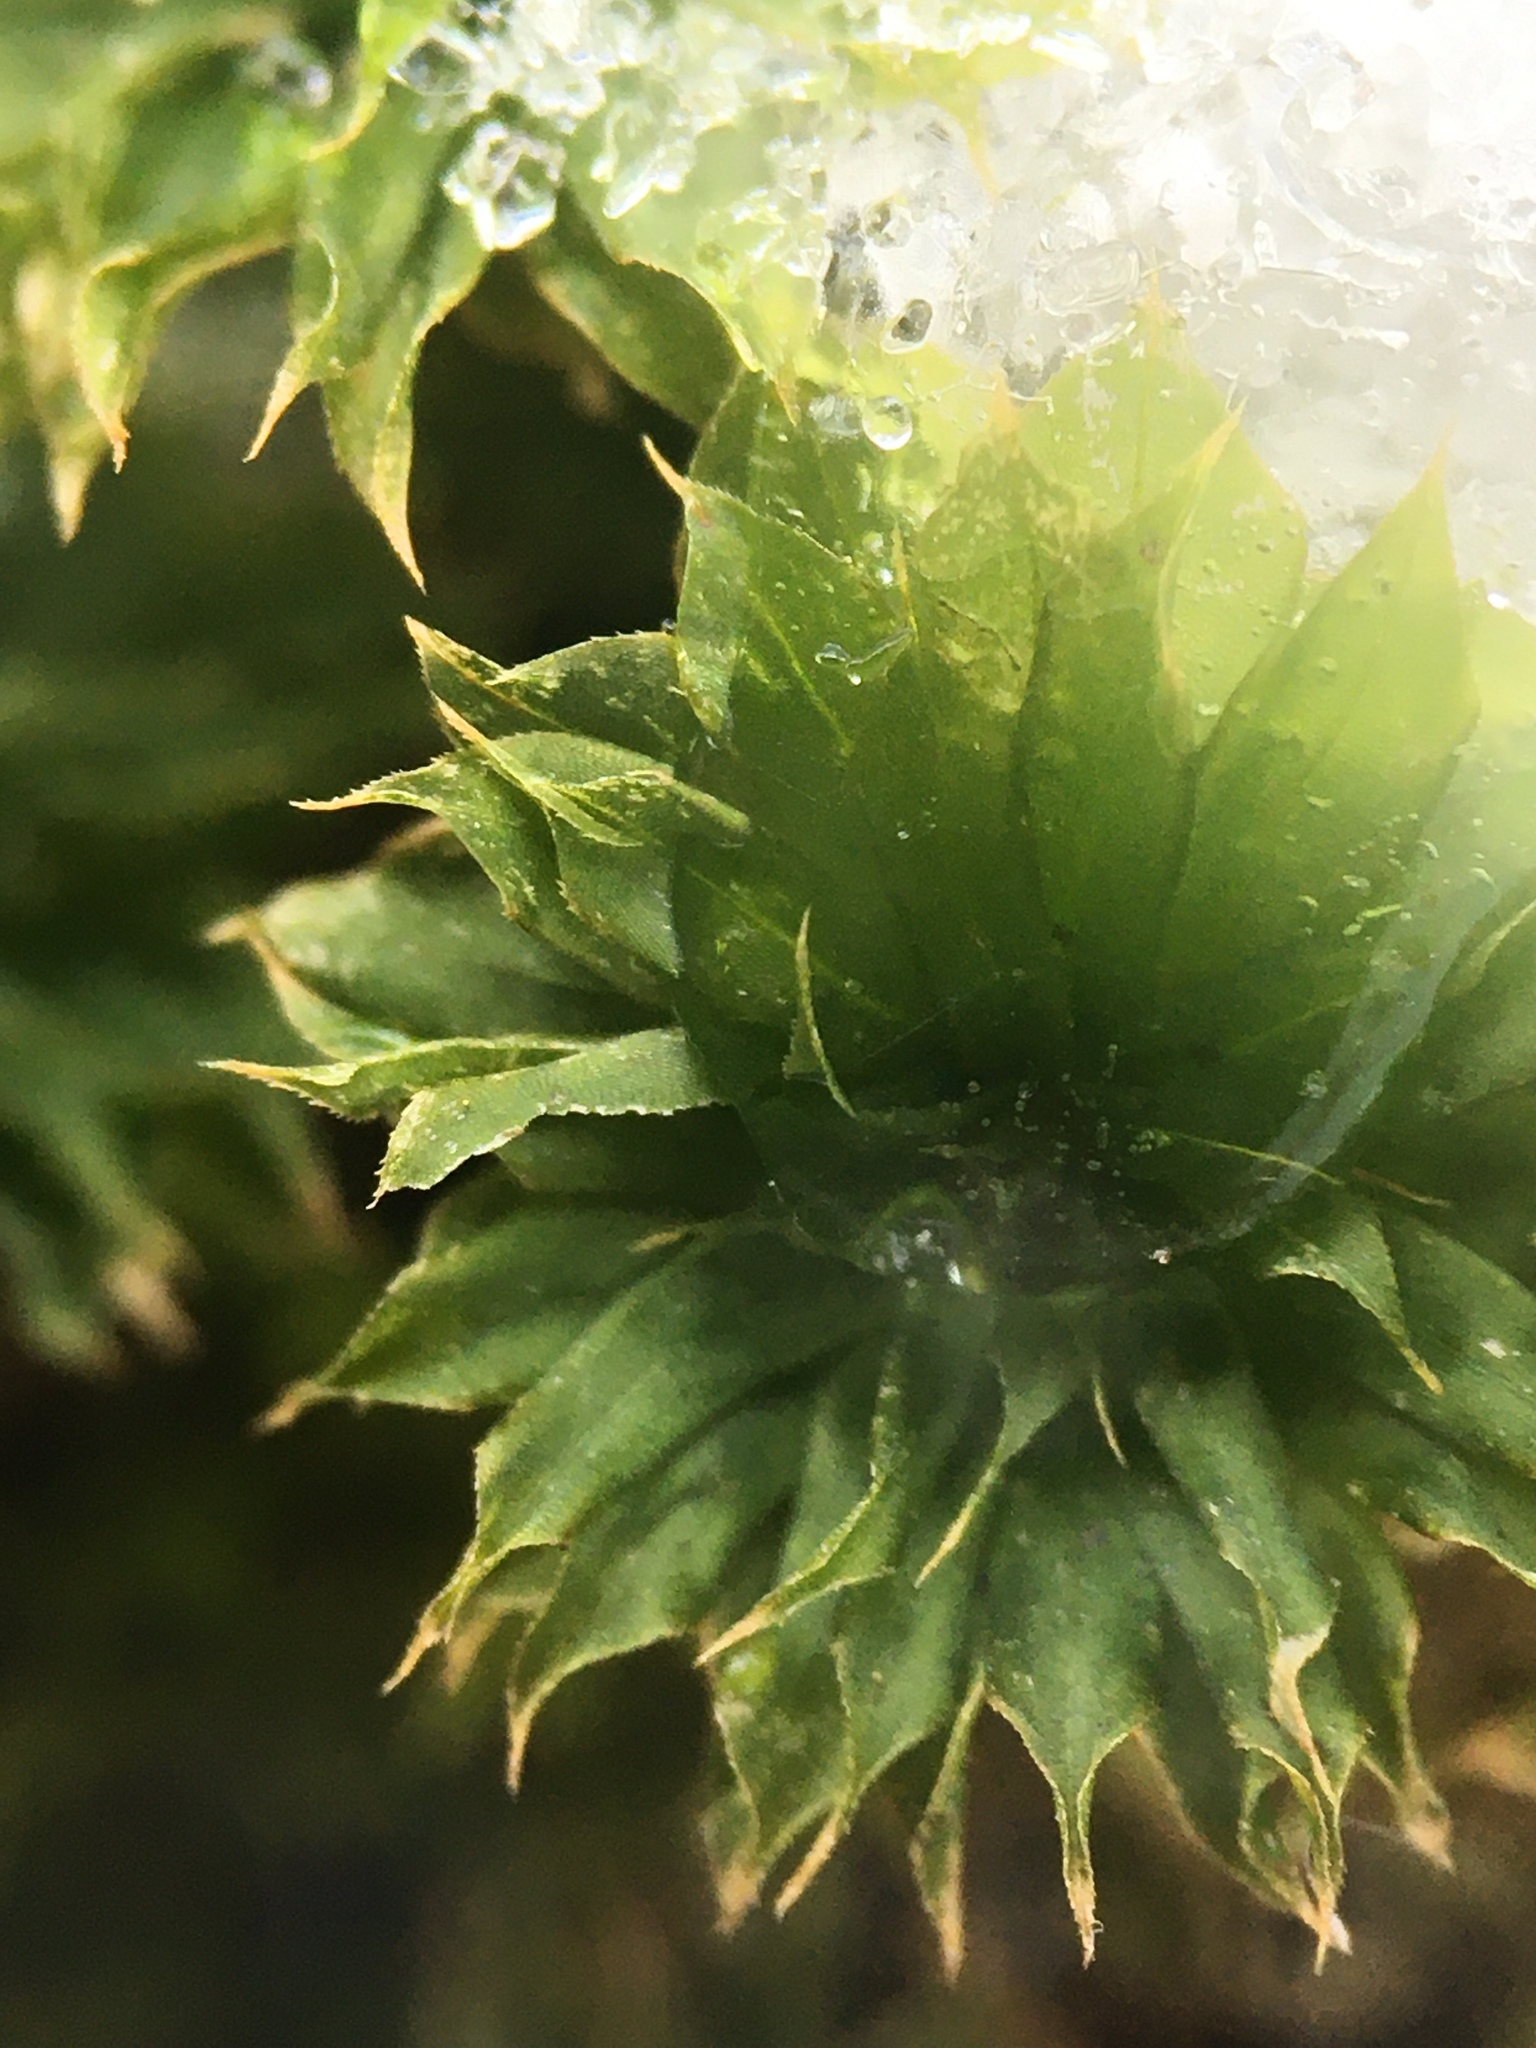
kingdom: Plantae
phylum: Bryophyta
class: Bryopsida
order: Bryales
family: Bryaceae
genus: Rhodobryum
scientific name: Rhodobryum ontariense
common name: Ontario rhodobryum moss
